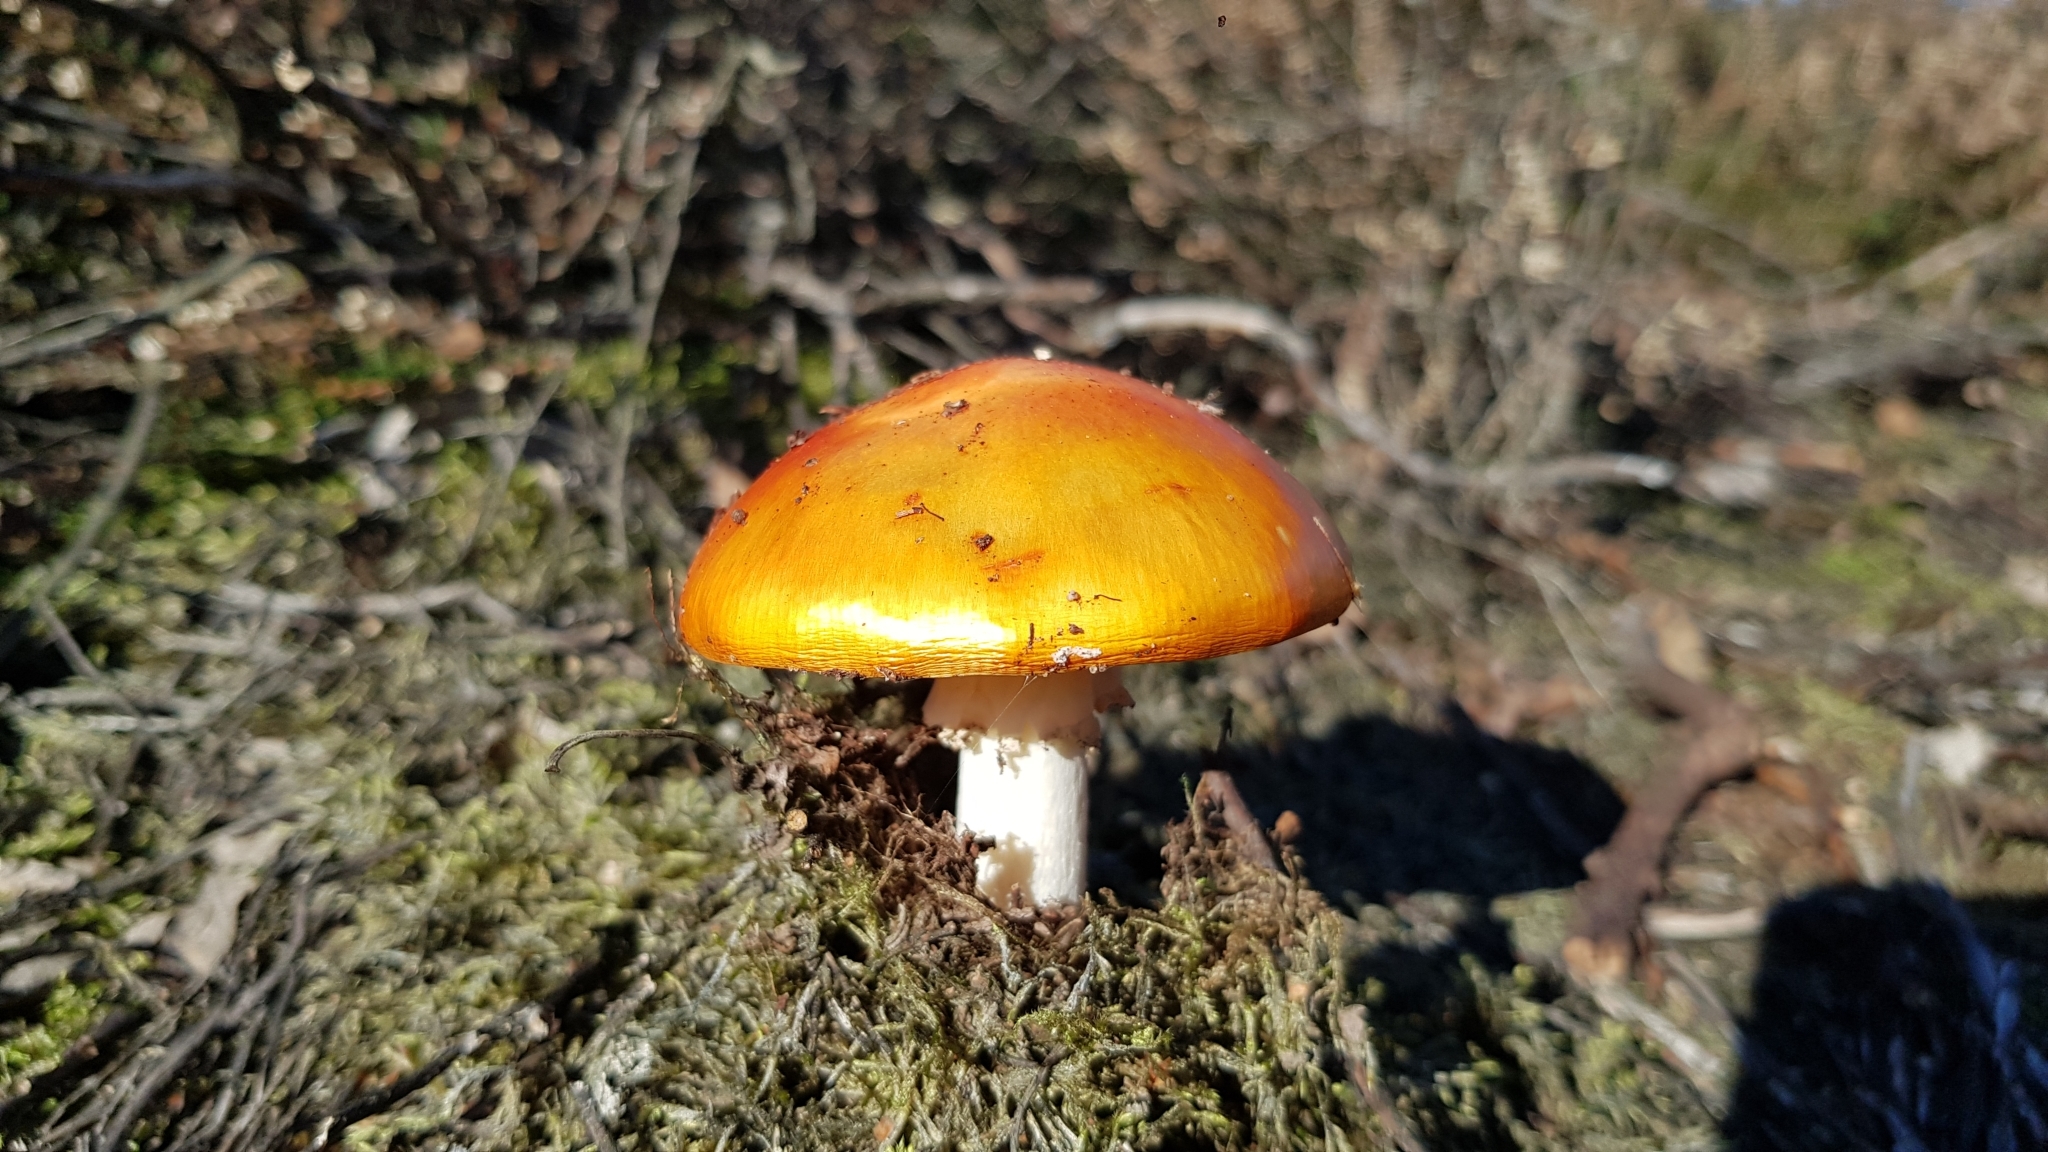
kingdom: Fungi
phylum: Basidiomycota
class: Agaricomycetes
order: Agaricales
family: Amanitaceae
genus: Amanita
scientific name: Amanita muscaria
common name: Fly agaric
